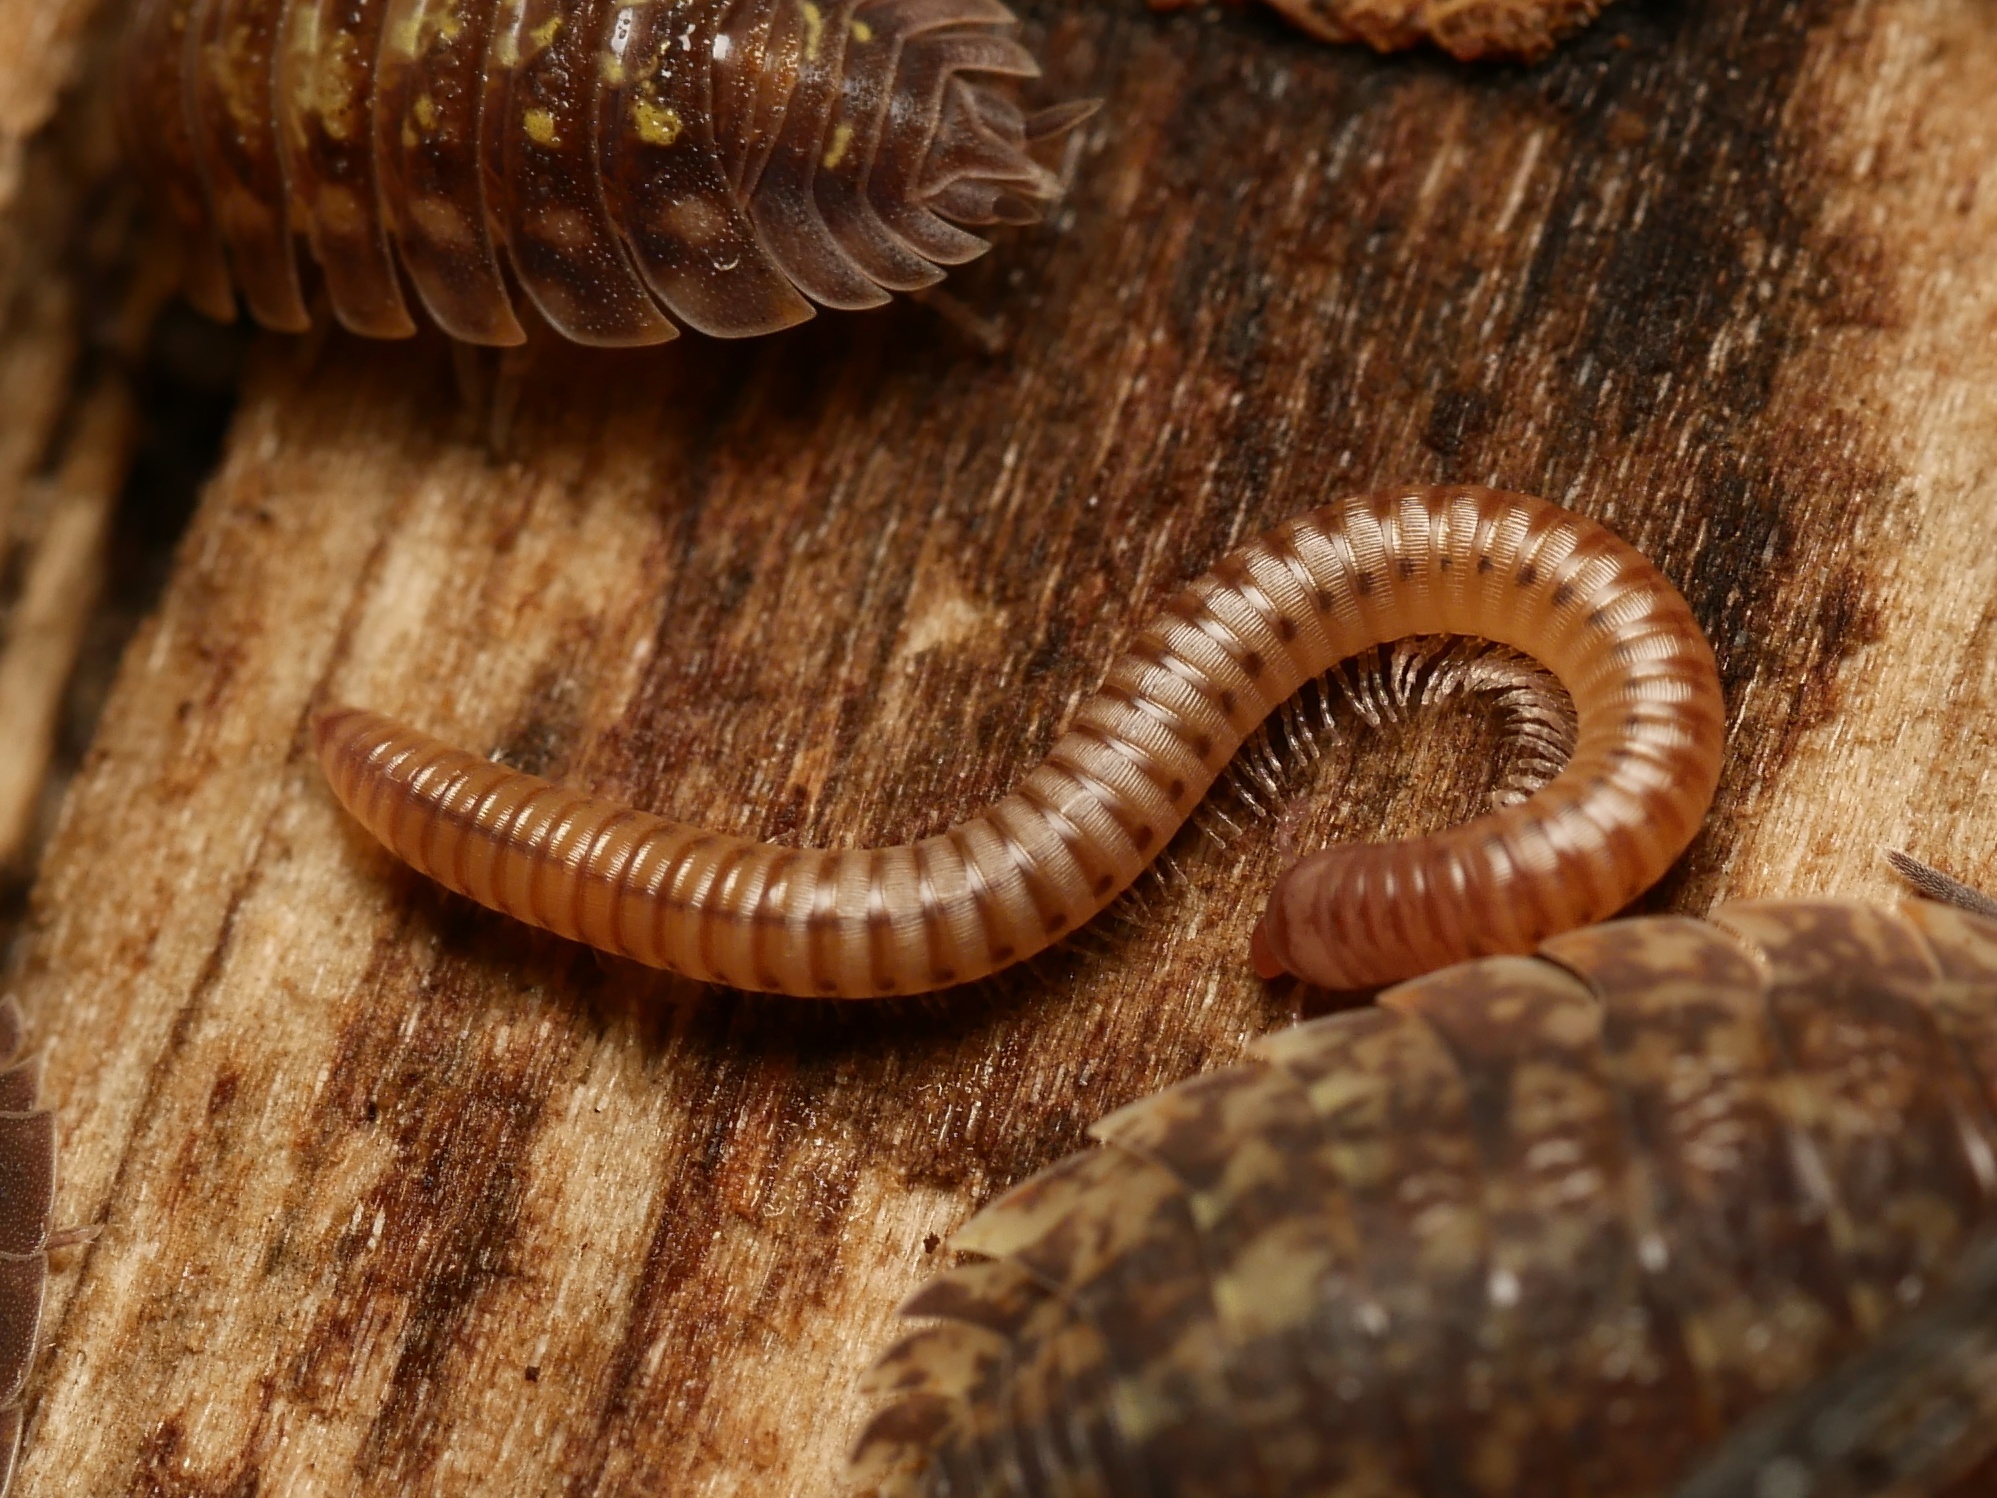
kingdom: Animalia
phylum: Arthropoda
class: Diplopoda
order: Julida
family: Julidae
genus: Cylindroiulus
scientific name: Cylindroiulus punctatus
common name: Blunt-tailed millipede
